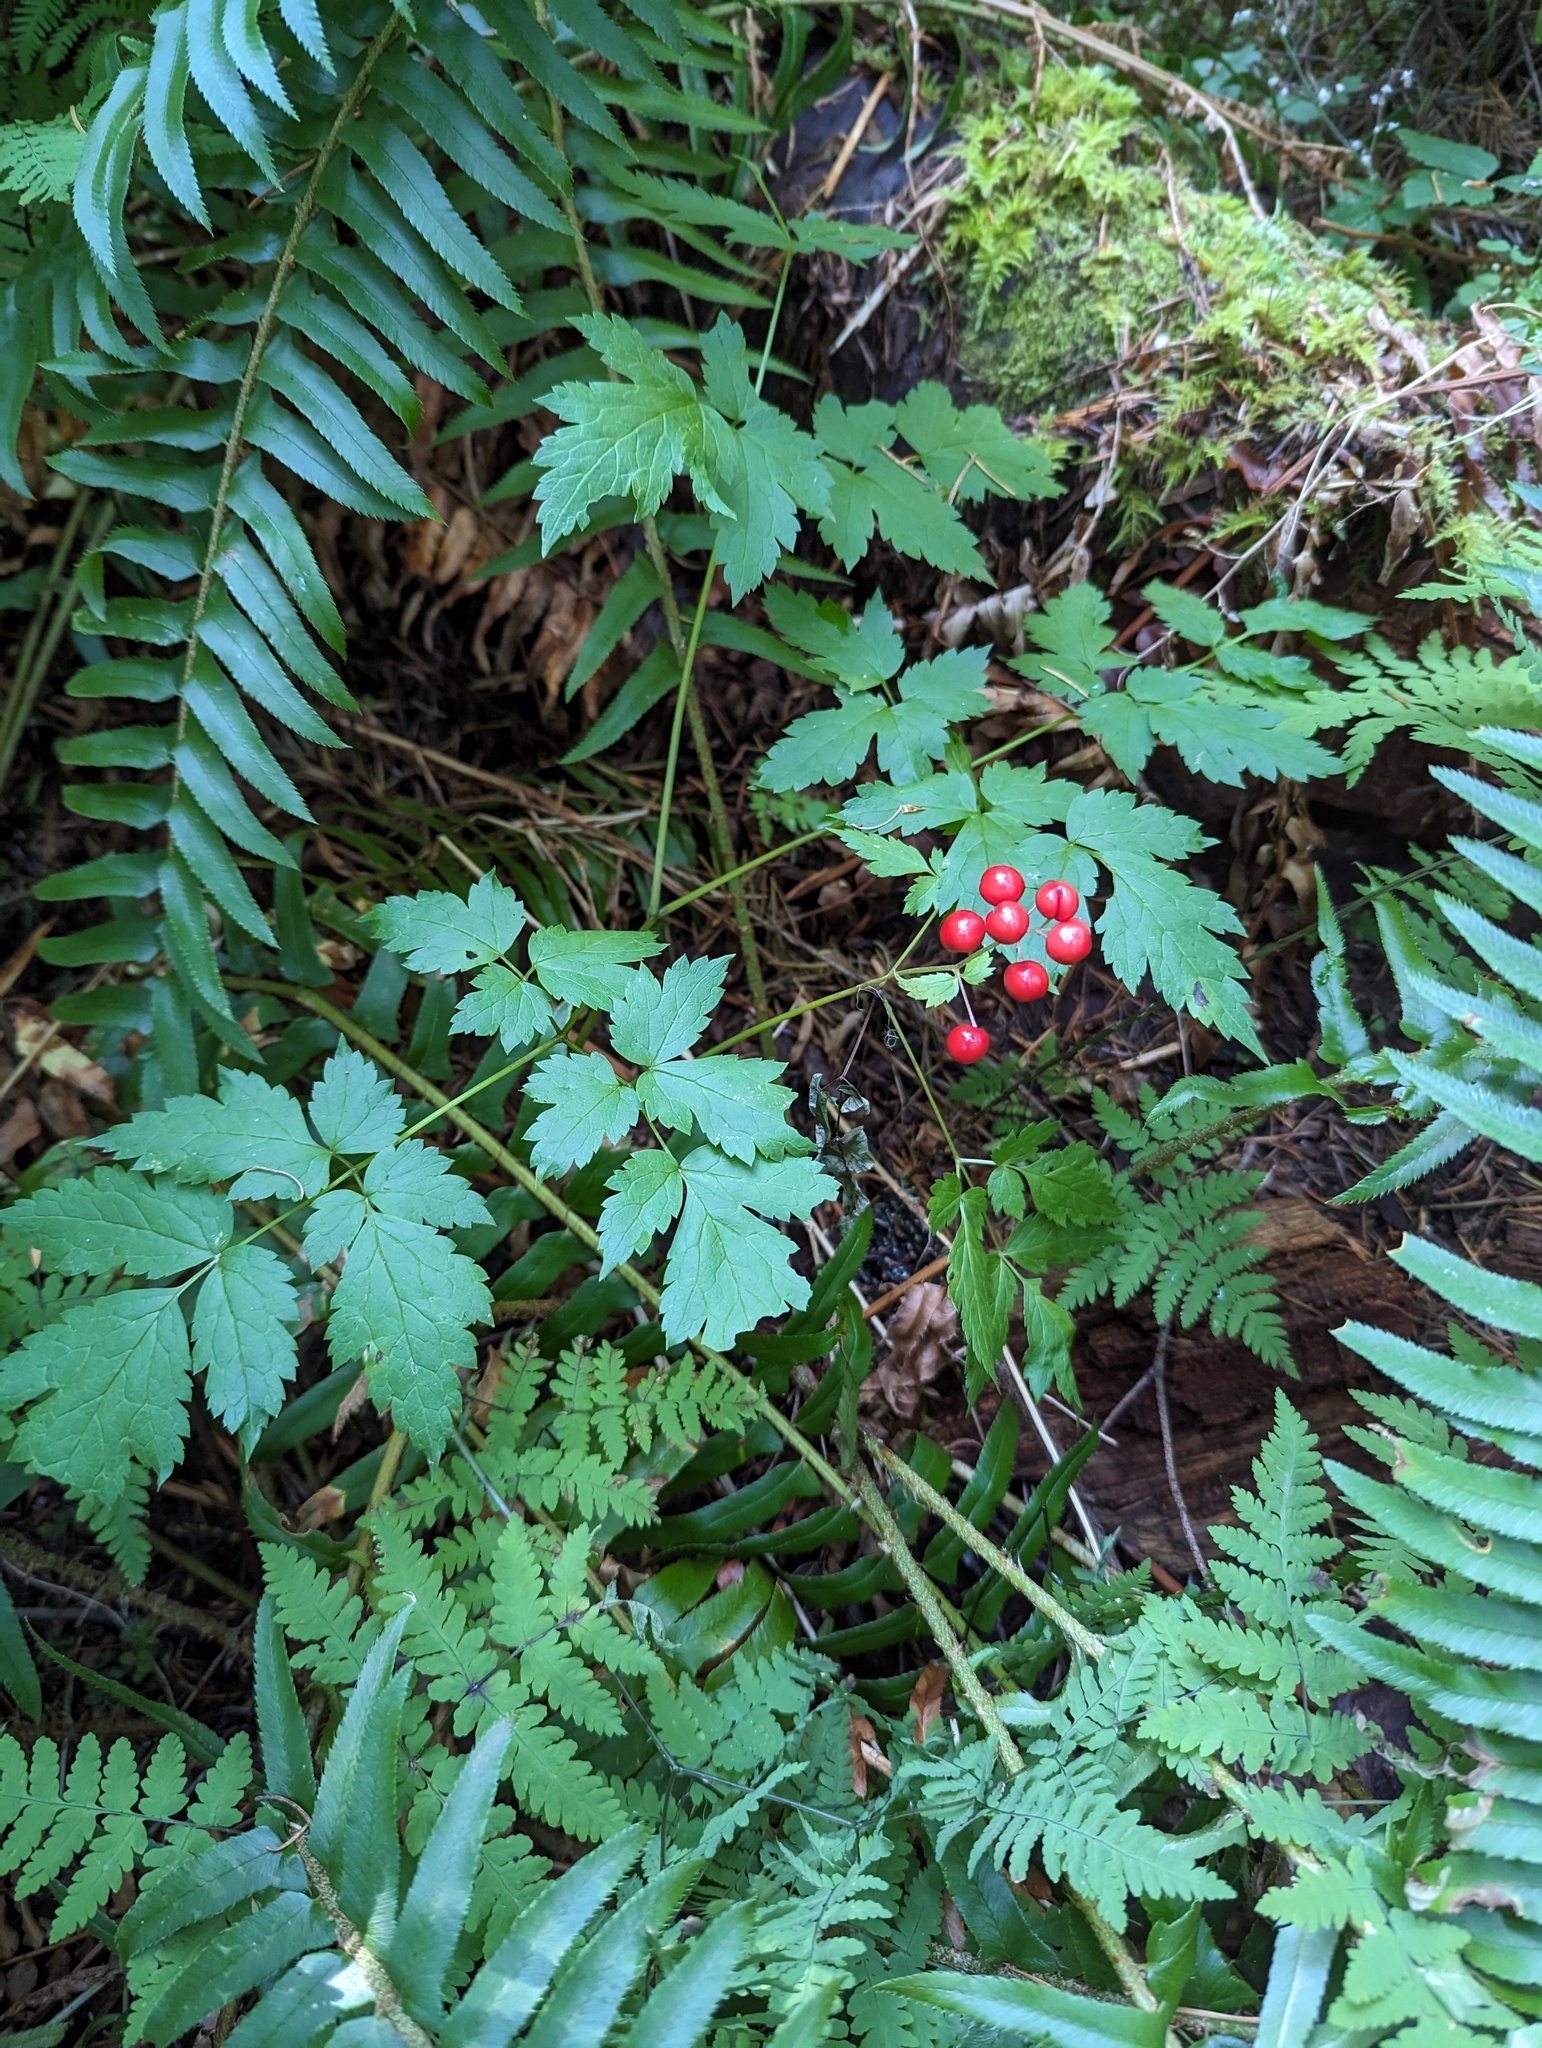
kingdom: Plantae
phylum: Tracheophyta
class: Magnoliopsida
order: Ranunculales
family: Ranunculaceae
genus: Actaea
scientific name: Actaea rubra
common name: Red baneberry
